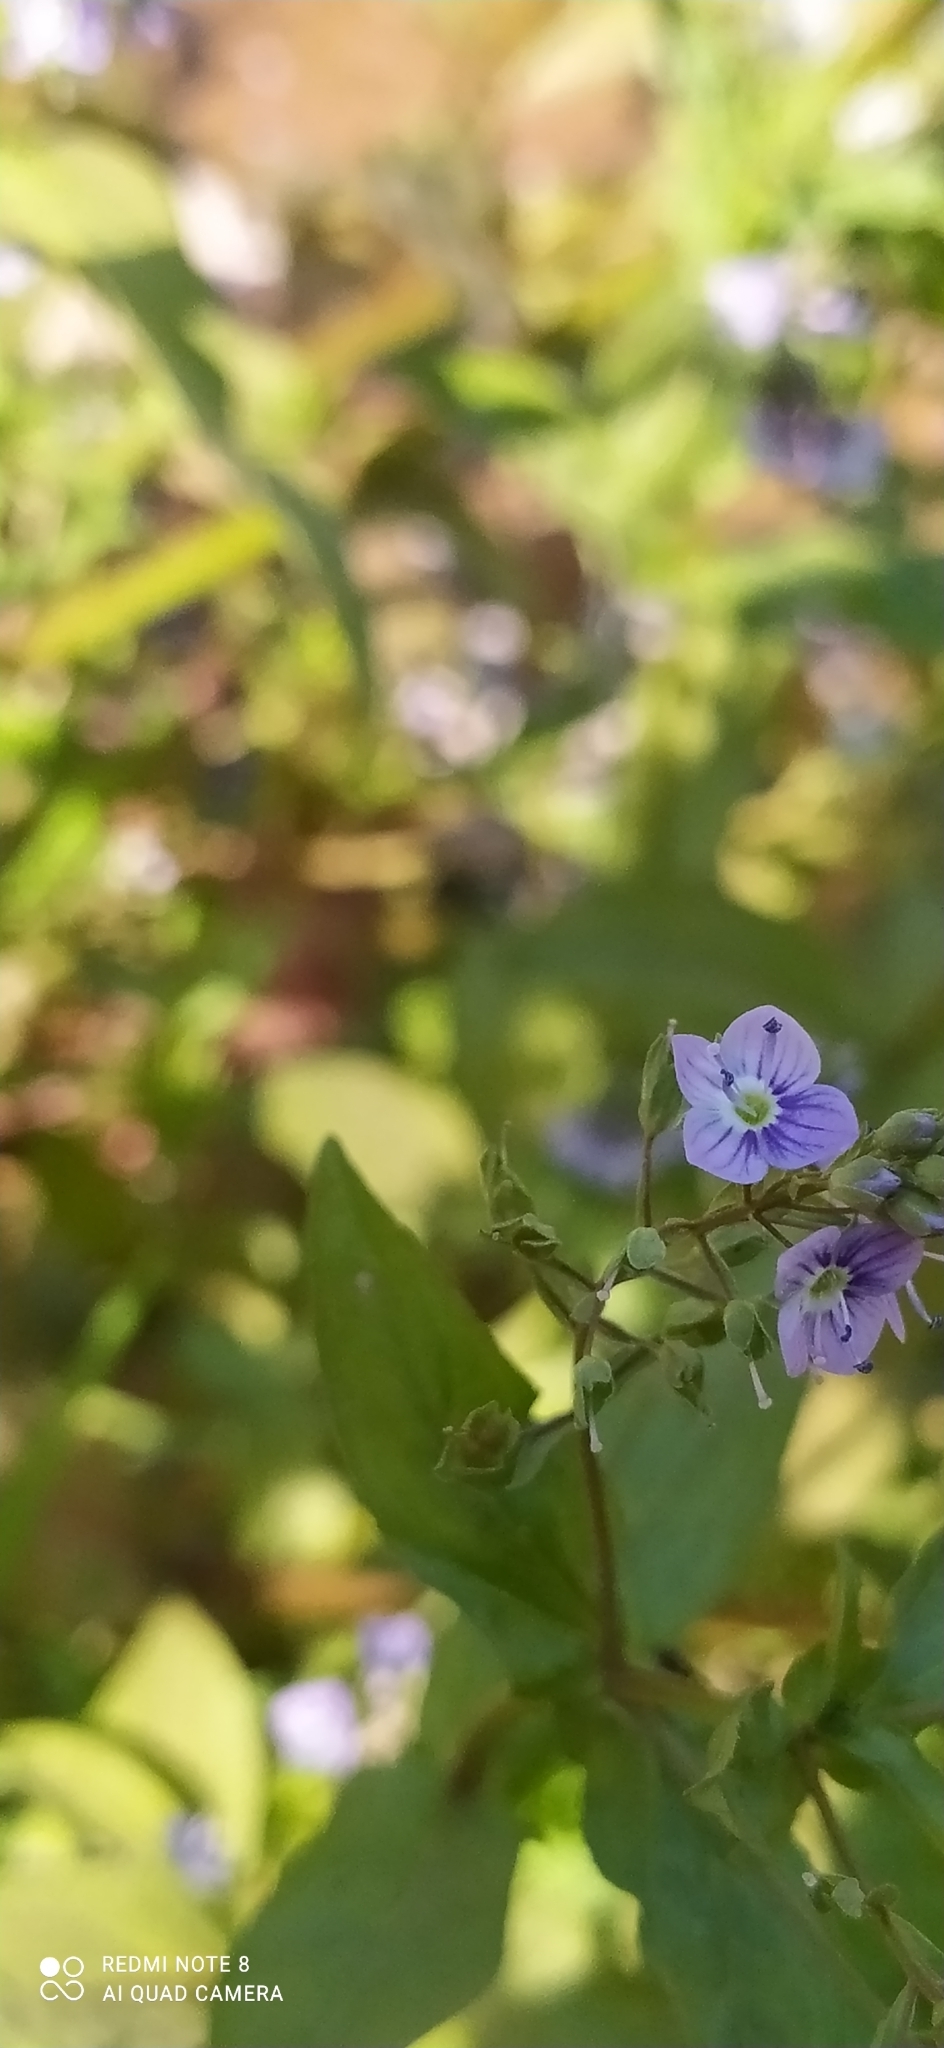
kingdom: Plantae
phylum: Tracheophyta
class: Magnoliopsida
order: Lamiales
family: Plantaginaceae
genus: Veronica
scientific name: Veronica anagallis-aquatica
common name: Water speedwell
